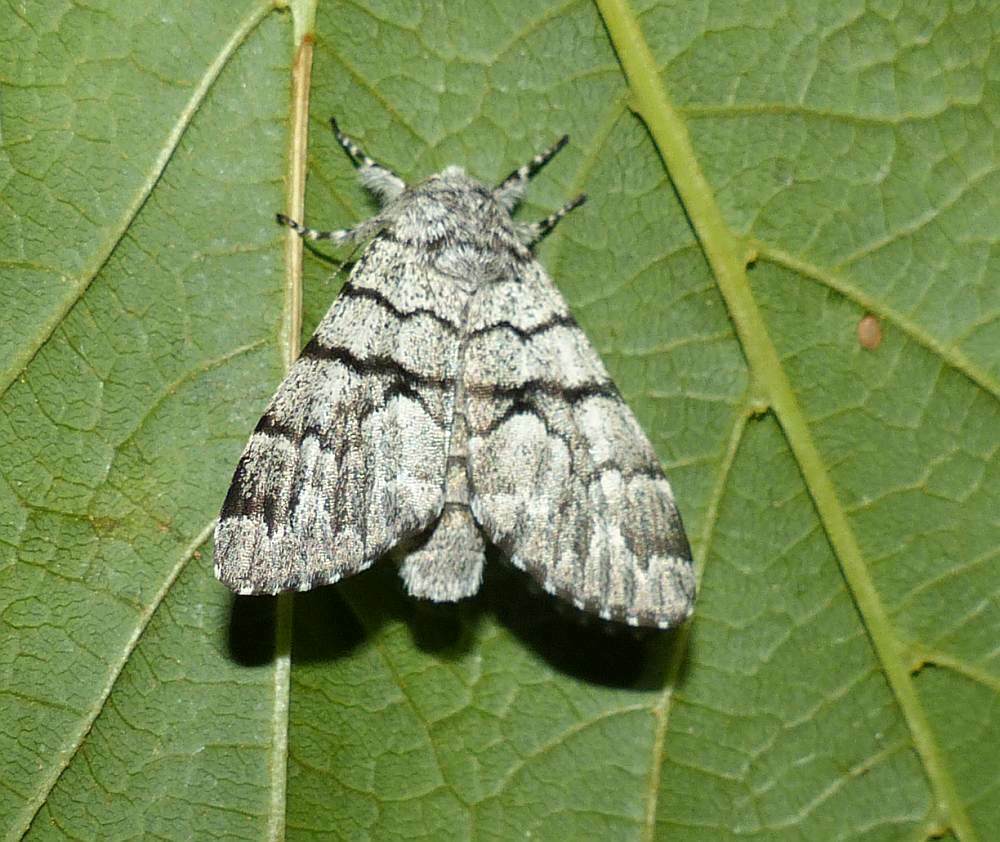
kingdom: Animalia
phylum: Arthropoda
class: Insecta
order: Lepidoptera
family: Noctuidae
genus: Panthea
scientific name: Panthea furcilla
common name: Eastern panthea moth
